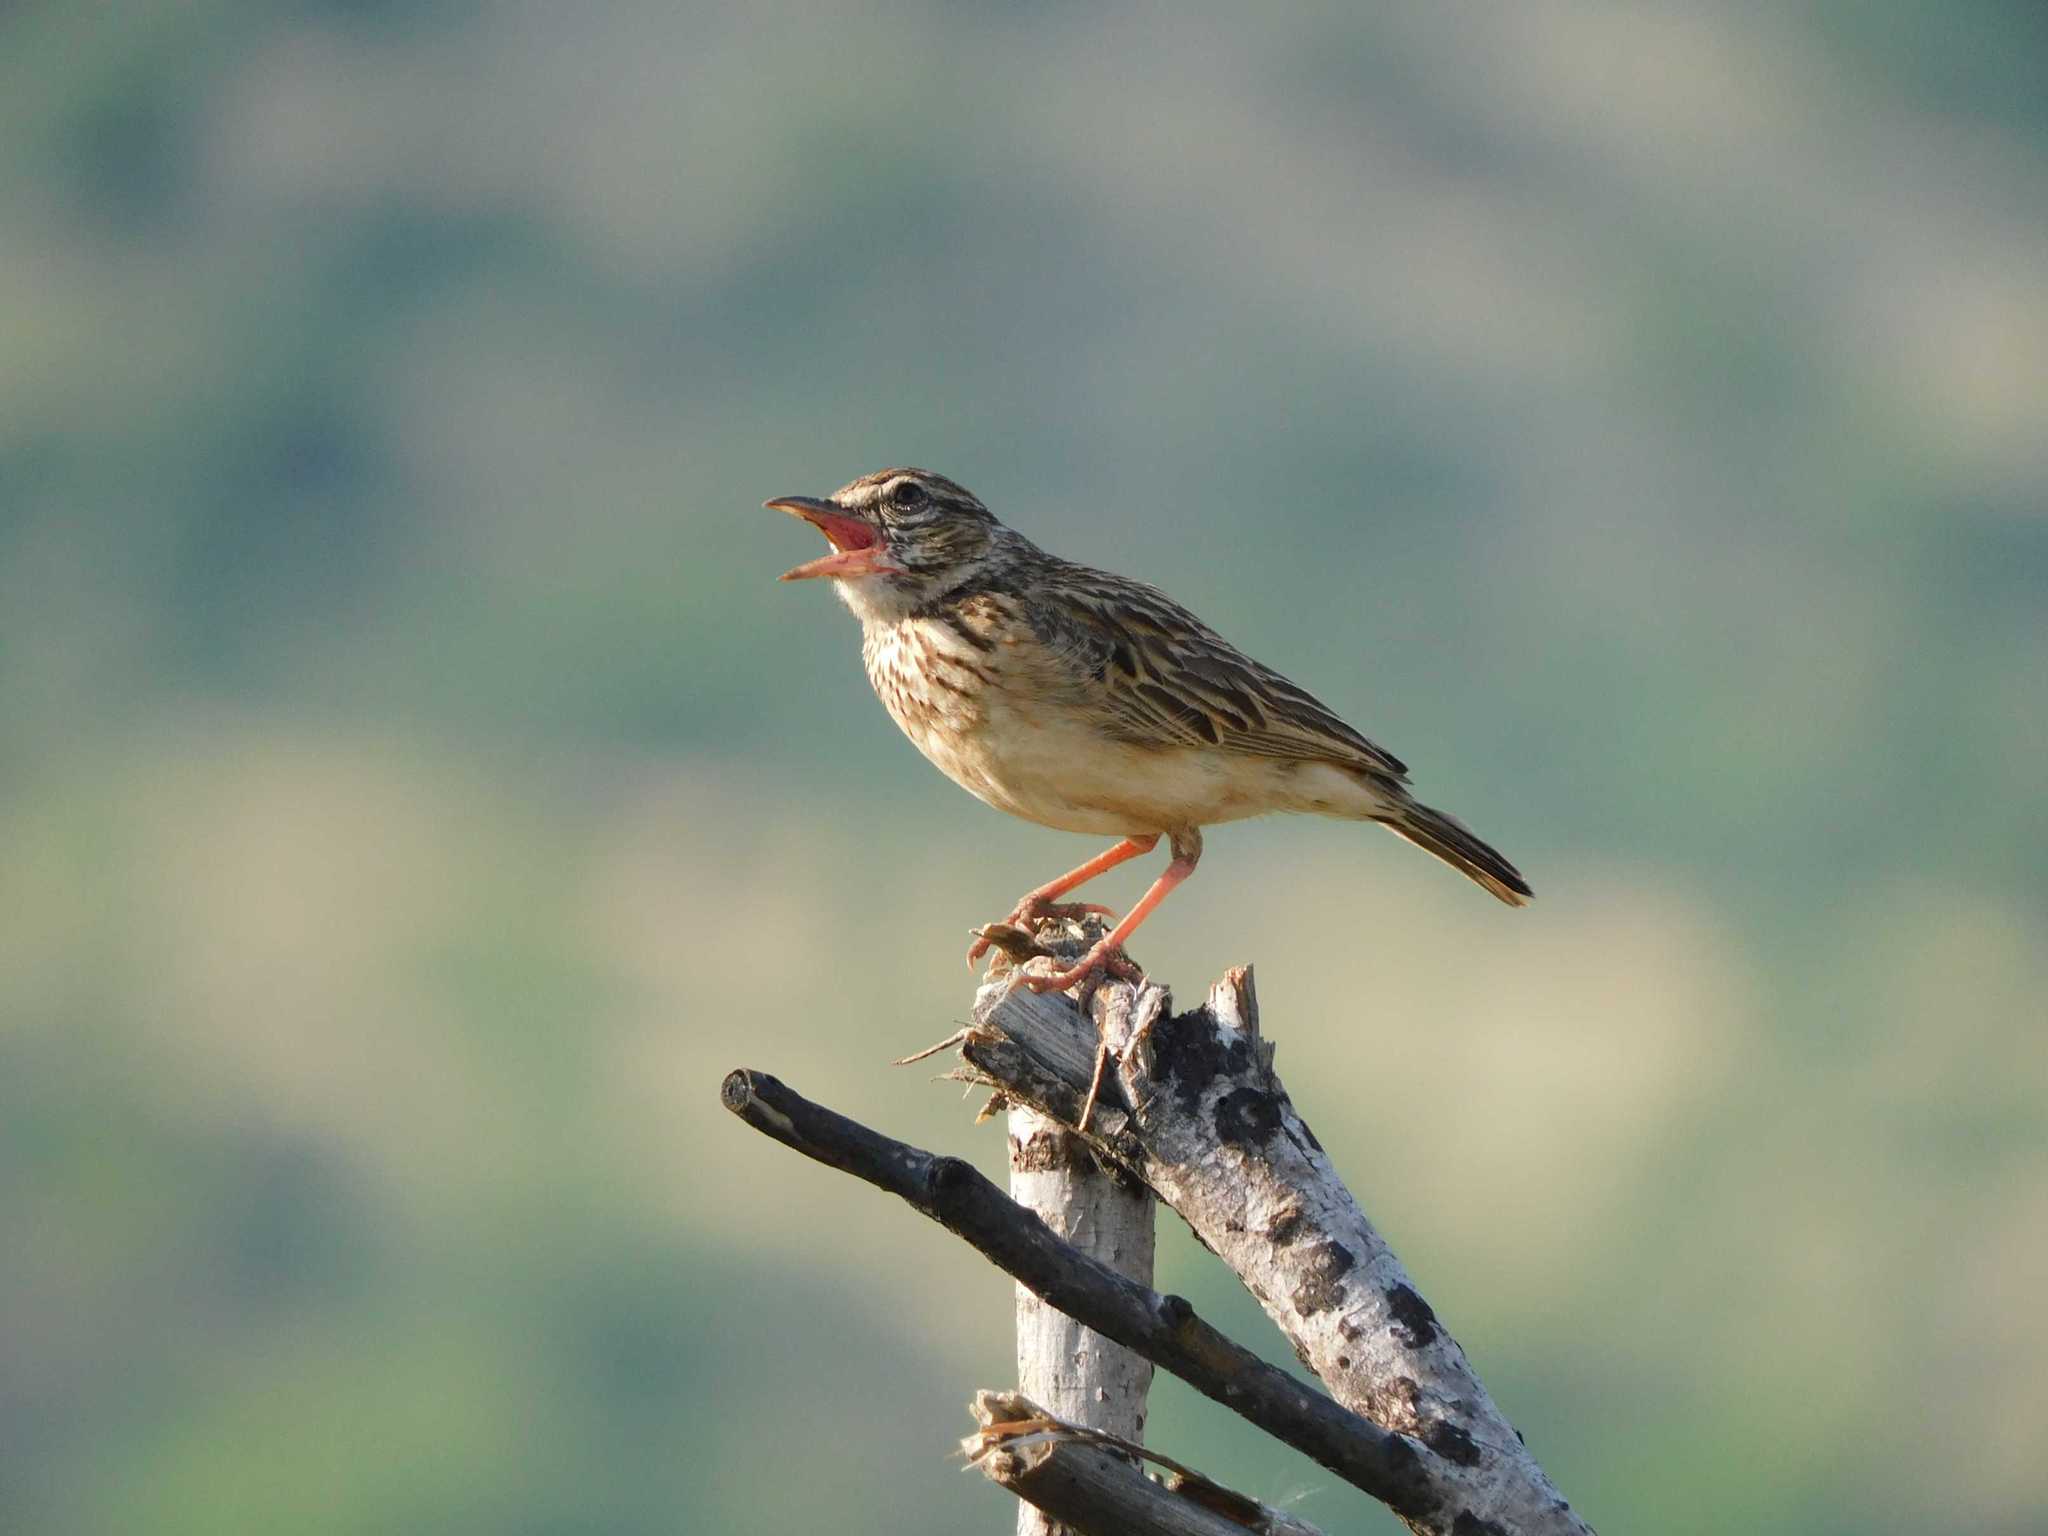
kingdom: Animalia
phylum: Chordata
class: Aves
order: Passeriformes
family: Alaudidae
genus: Calendulauda
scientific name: Calendulauda sabota
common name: Sabota lark
